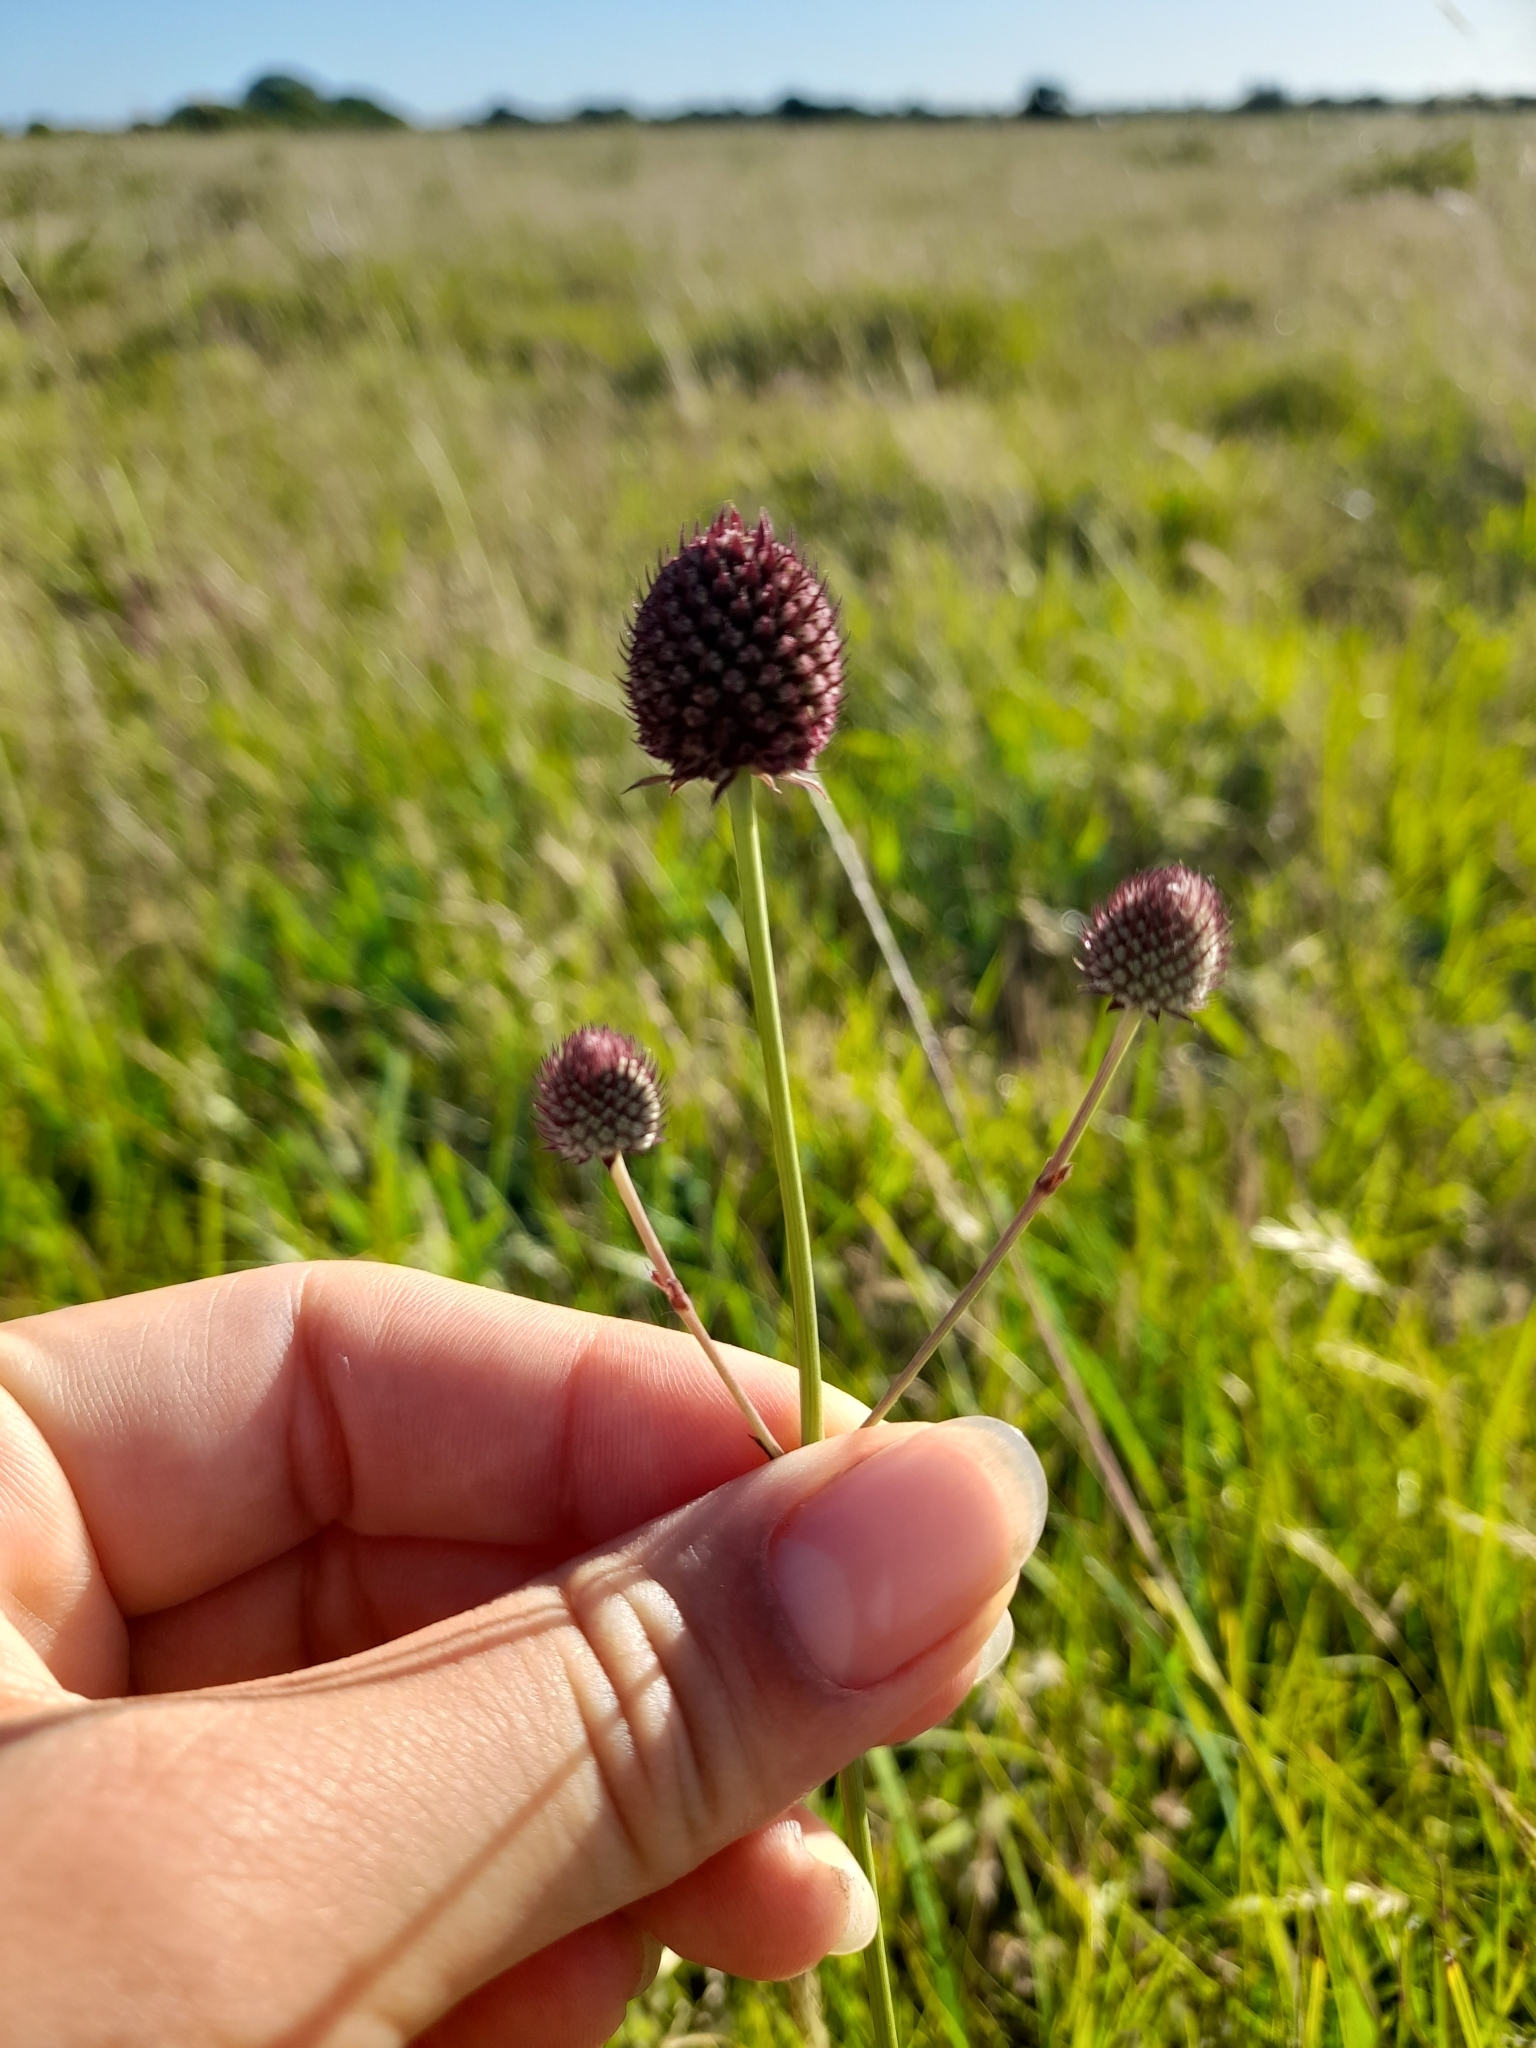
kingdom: Plantae
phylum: Tracheophyta
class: Magnoliopsida
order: Apiales
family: Apiaceae
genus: Eryngium
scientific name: Eryngium sanguisorba
